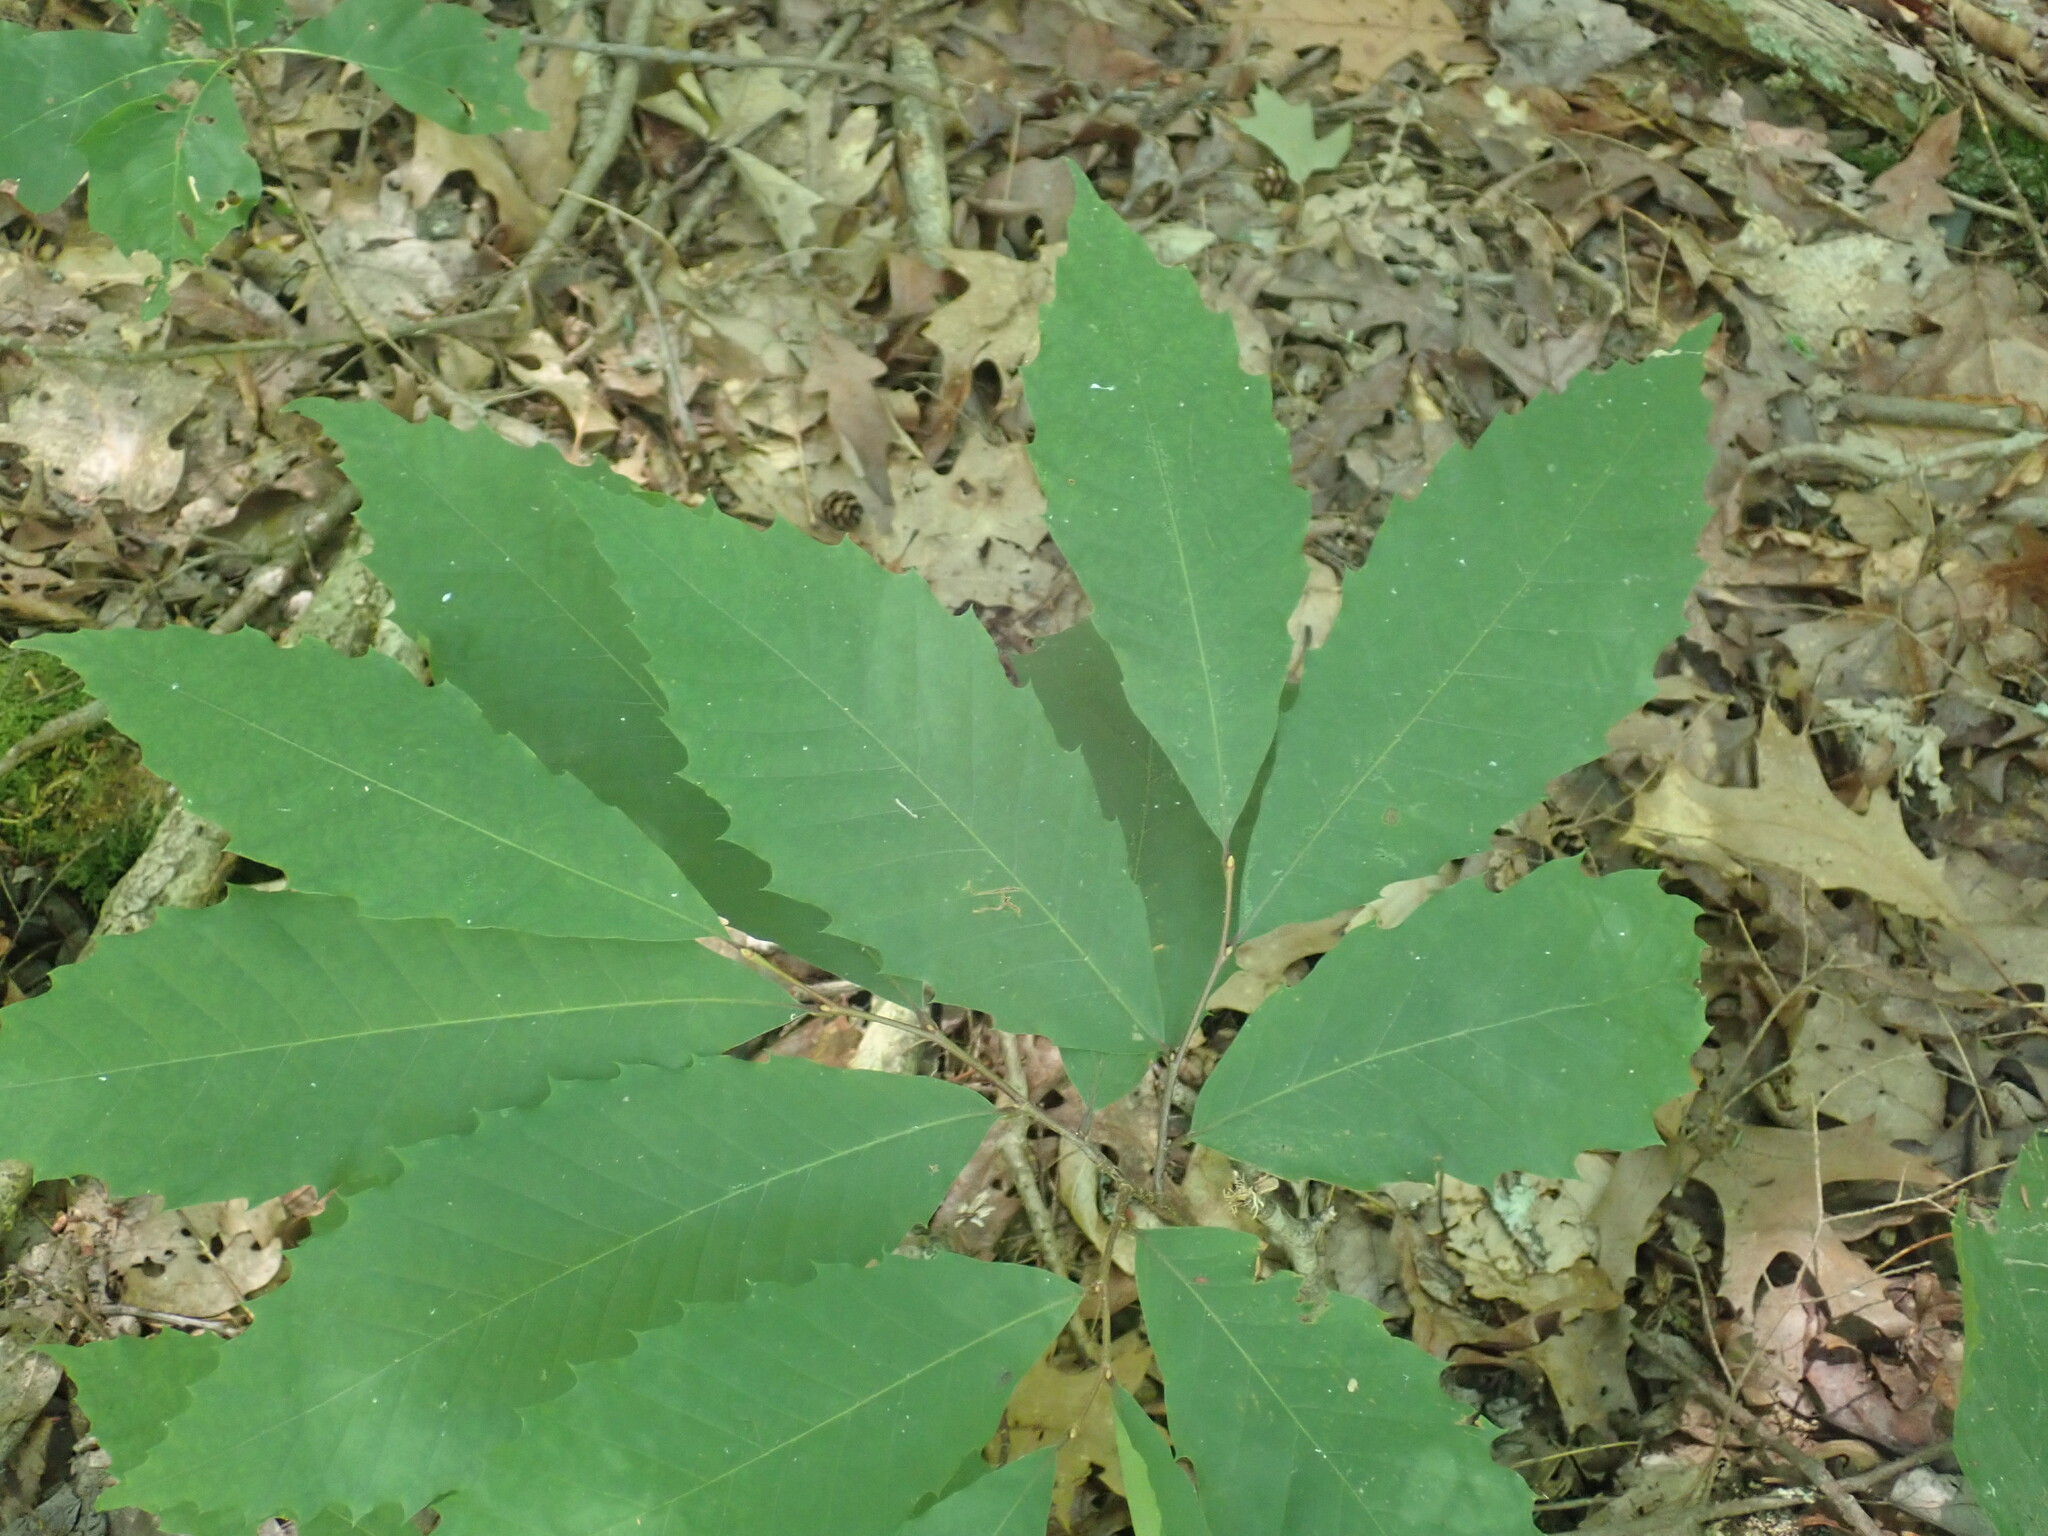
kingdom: Plantae
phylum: Tracheophyta
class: Magnoliopsida
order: Fagales
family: Fagaceae
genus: Castanea
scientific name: Castanea dentata
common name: American chestnut
